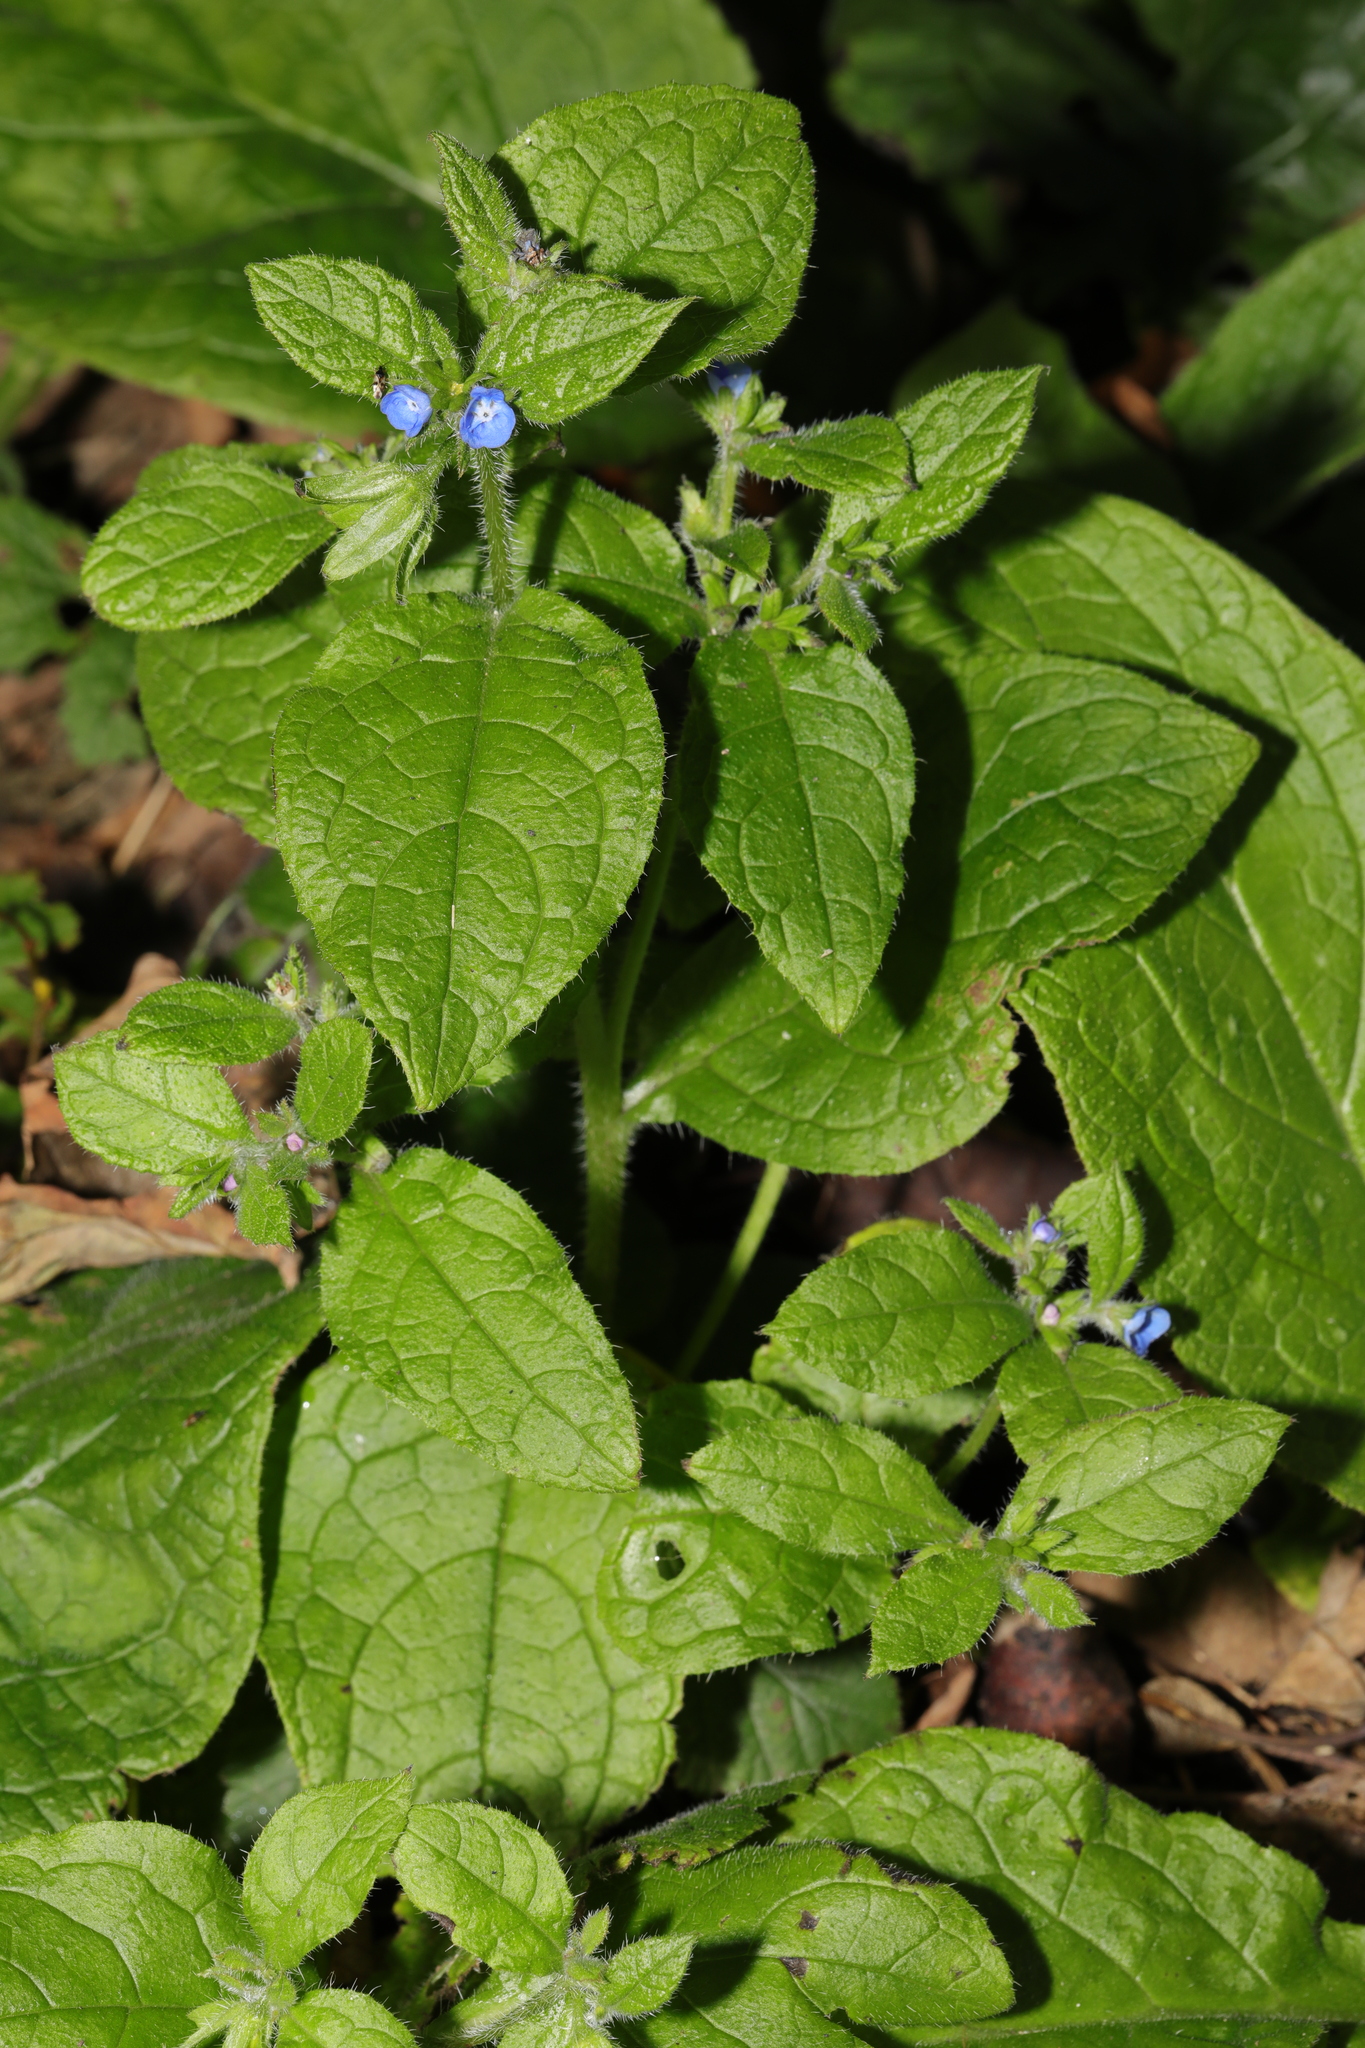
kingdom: Plantae
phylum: Tracheophyta
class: Magnoliopsida
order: Boraginales
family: Boraginaceae
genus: Pentaglottis
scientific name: Pentaglottis sempervirens
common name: Green alkanet
